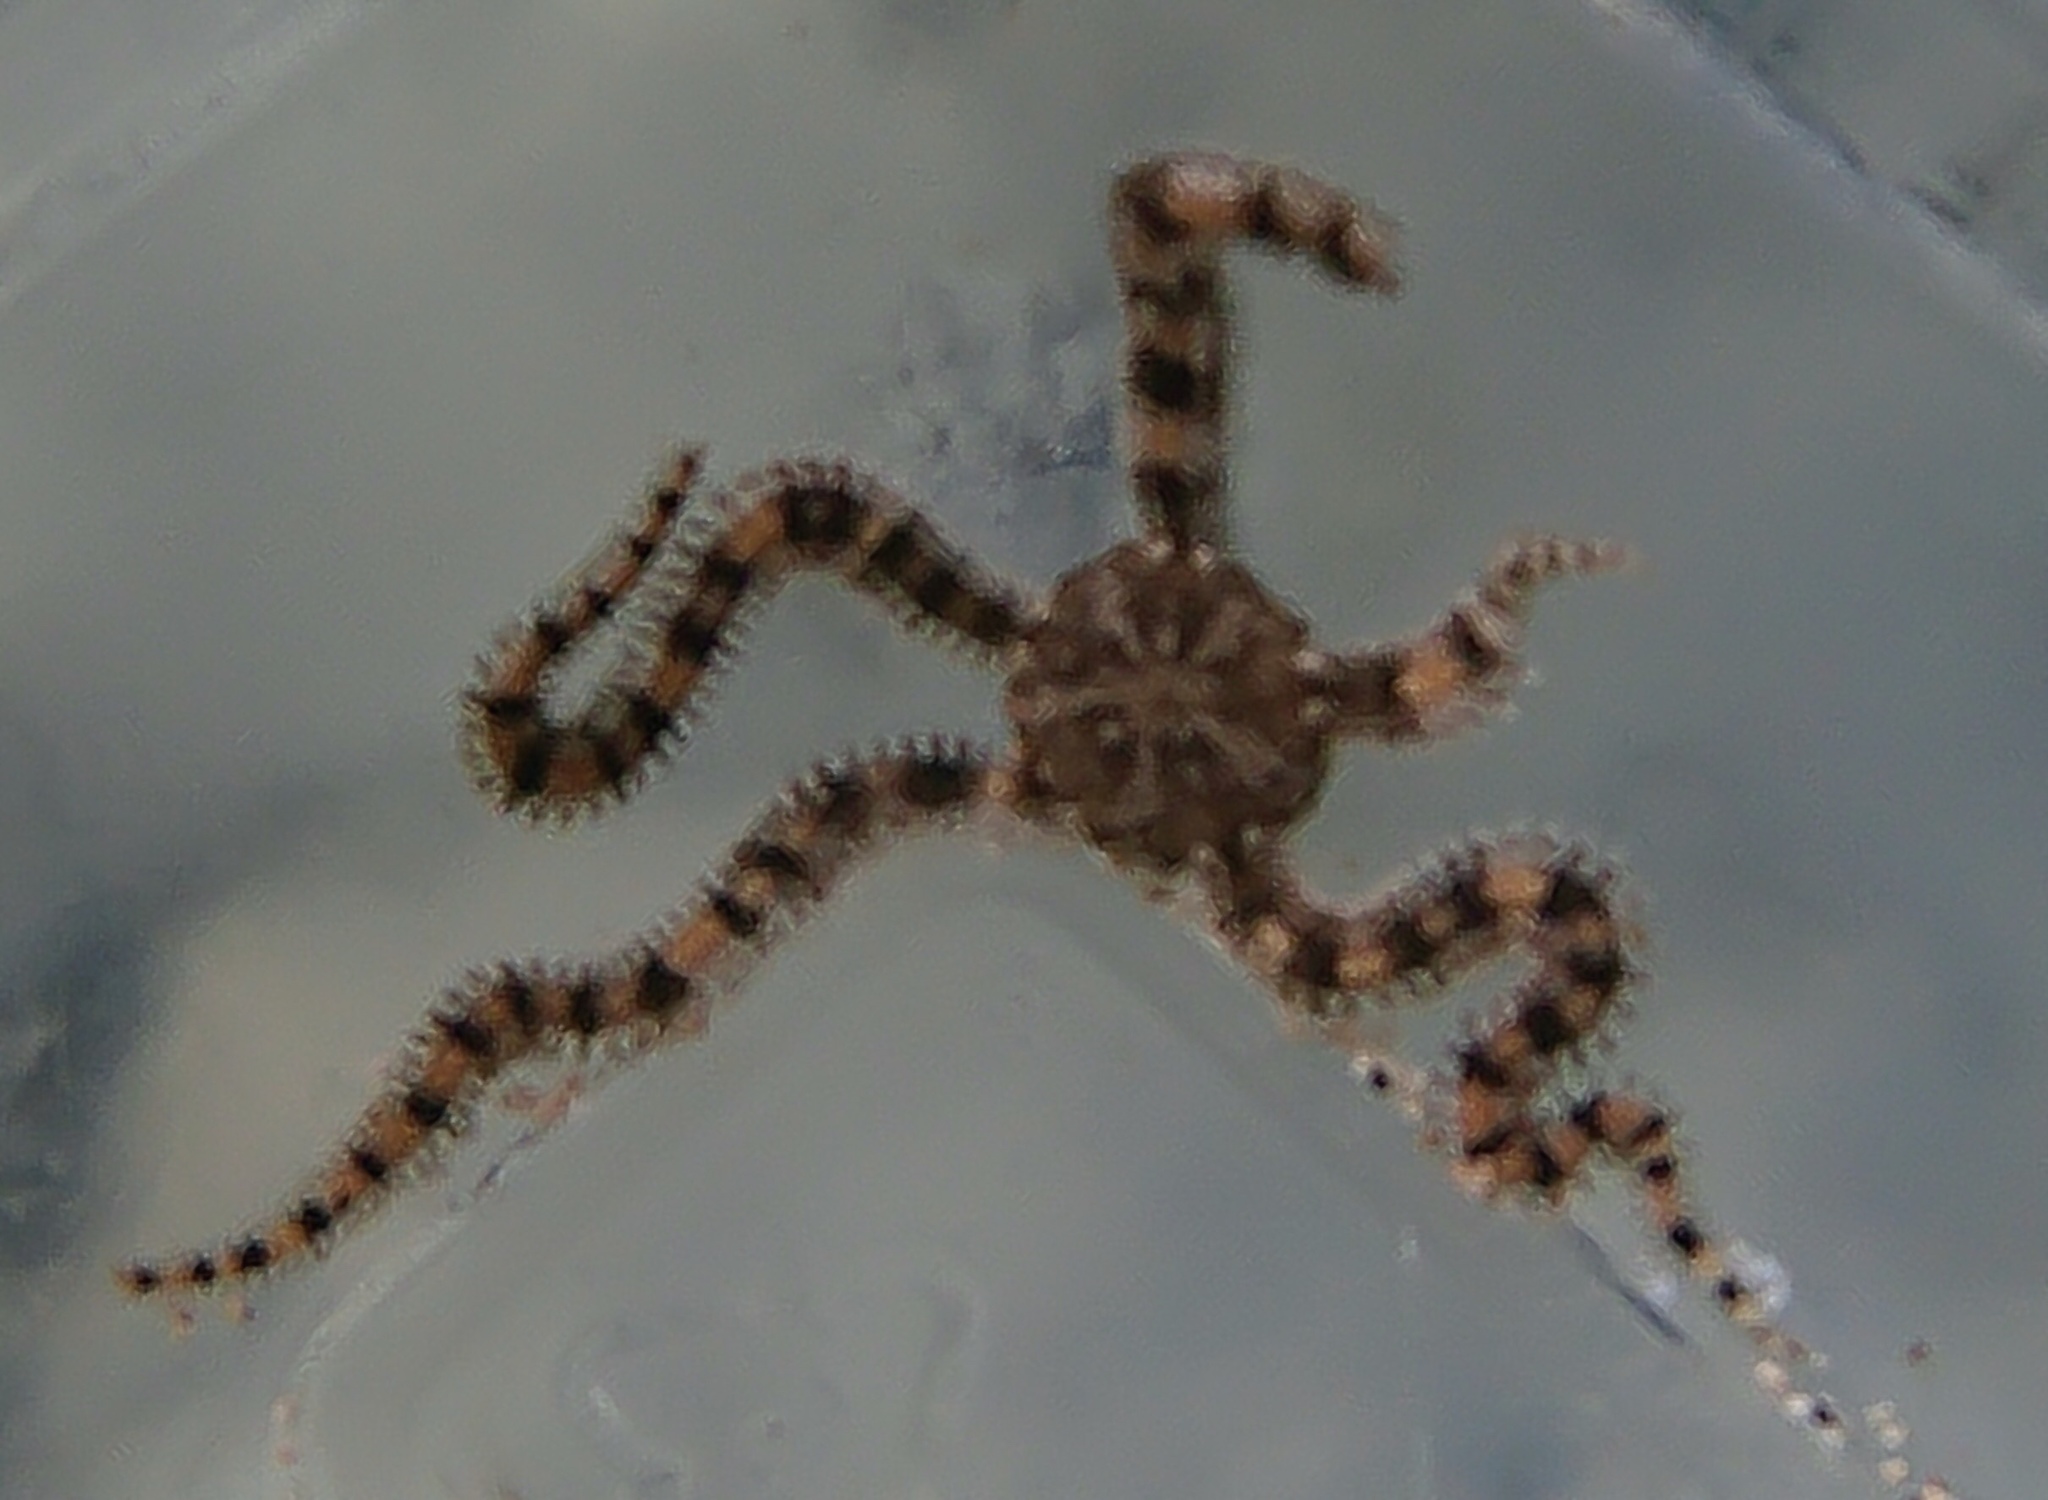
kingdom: Animalia
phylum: Echinodermata
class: Ophiuroidea
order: Ophiacanthida
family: Ophiocomidae
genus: Breviturma
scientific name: Breviturma brevipes
